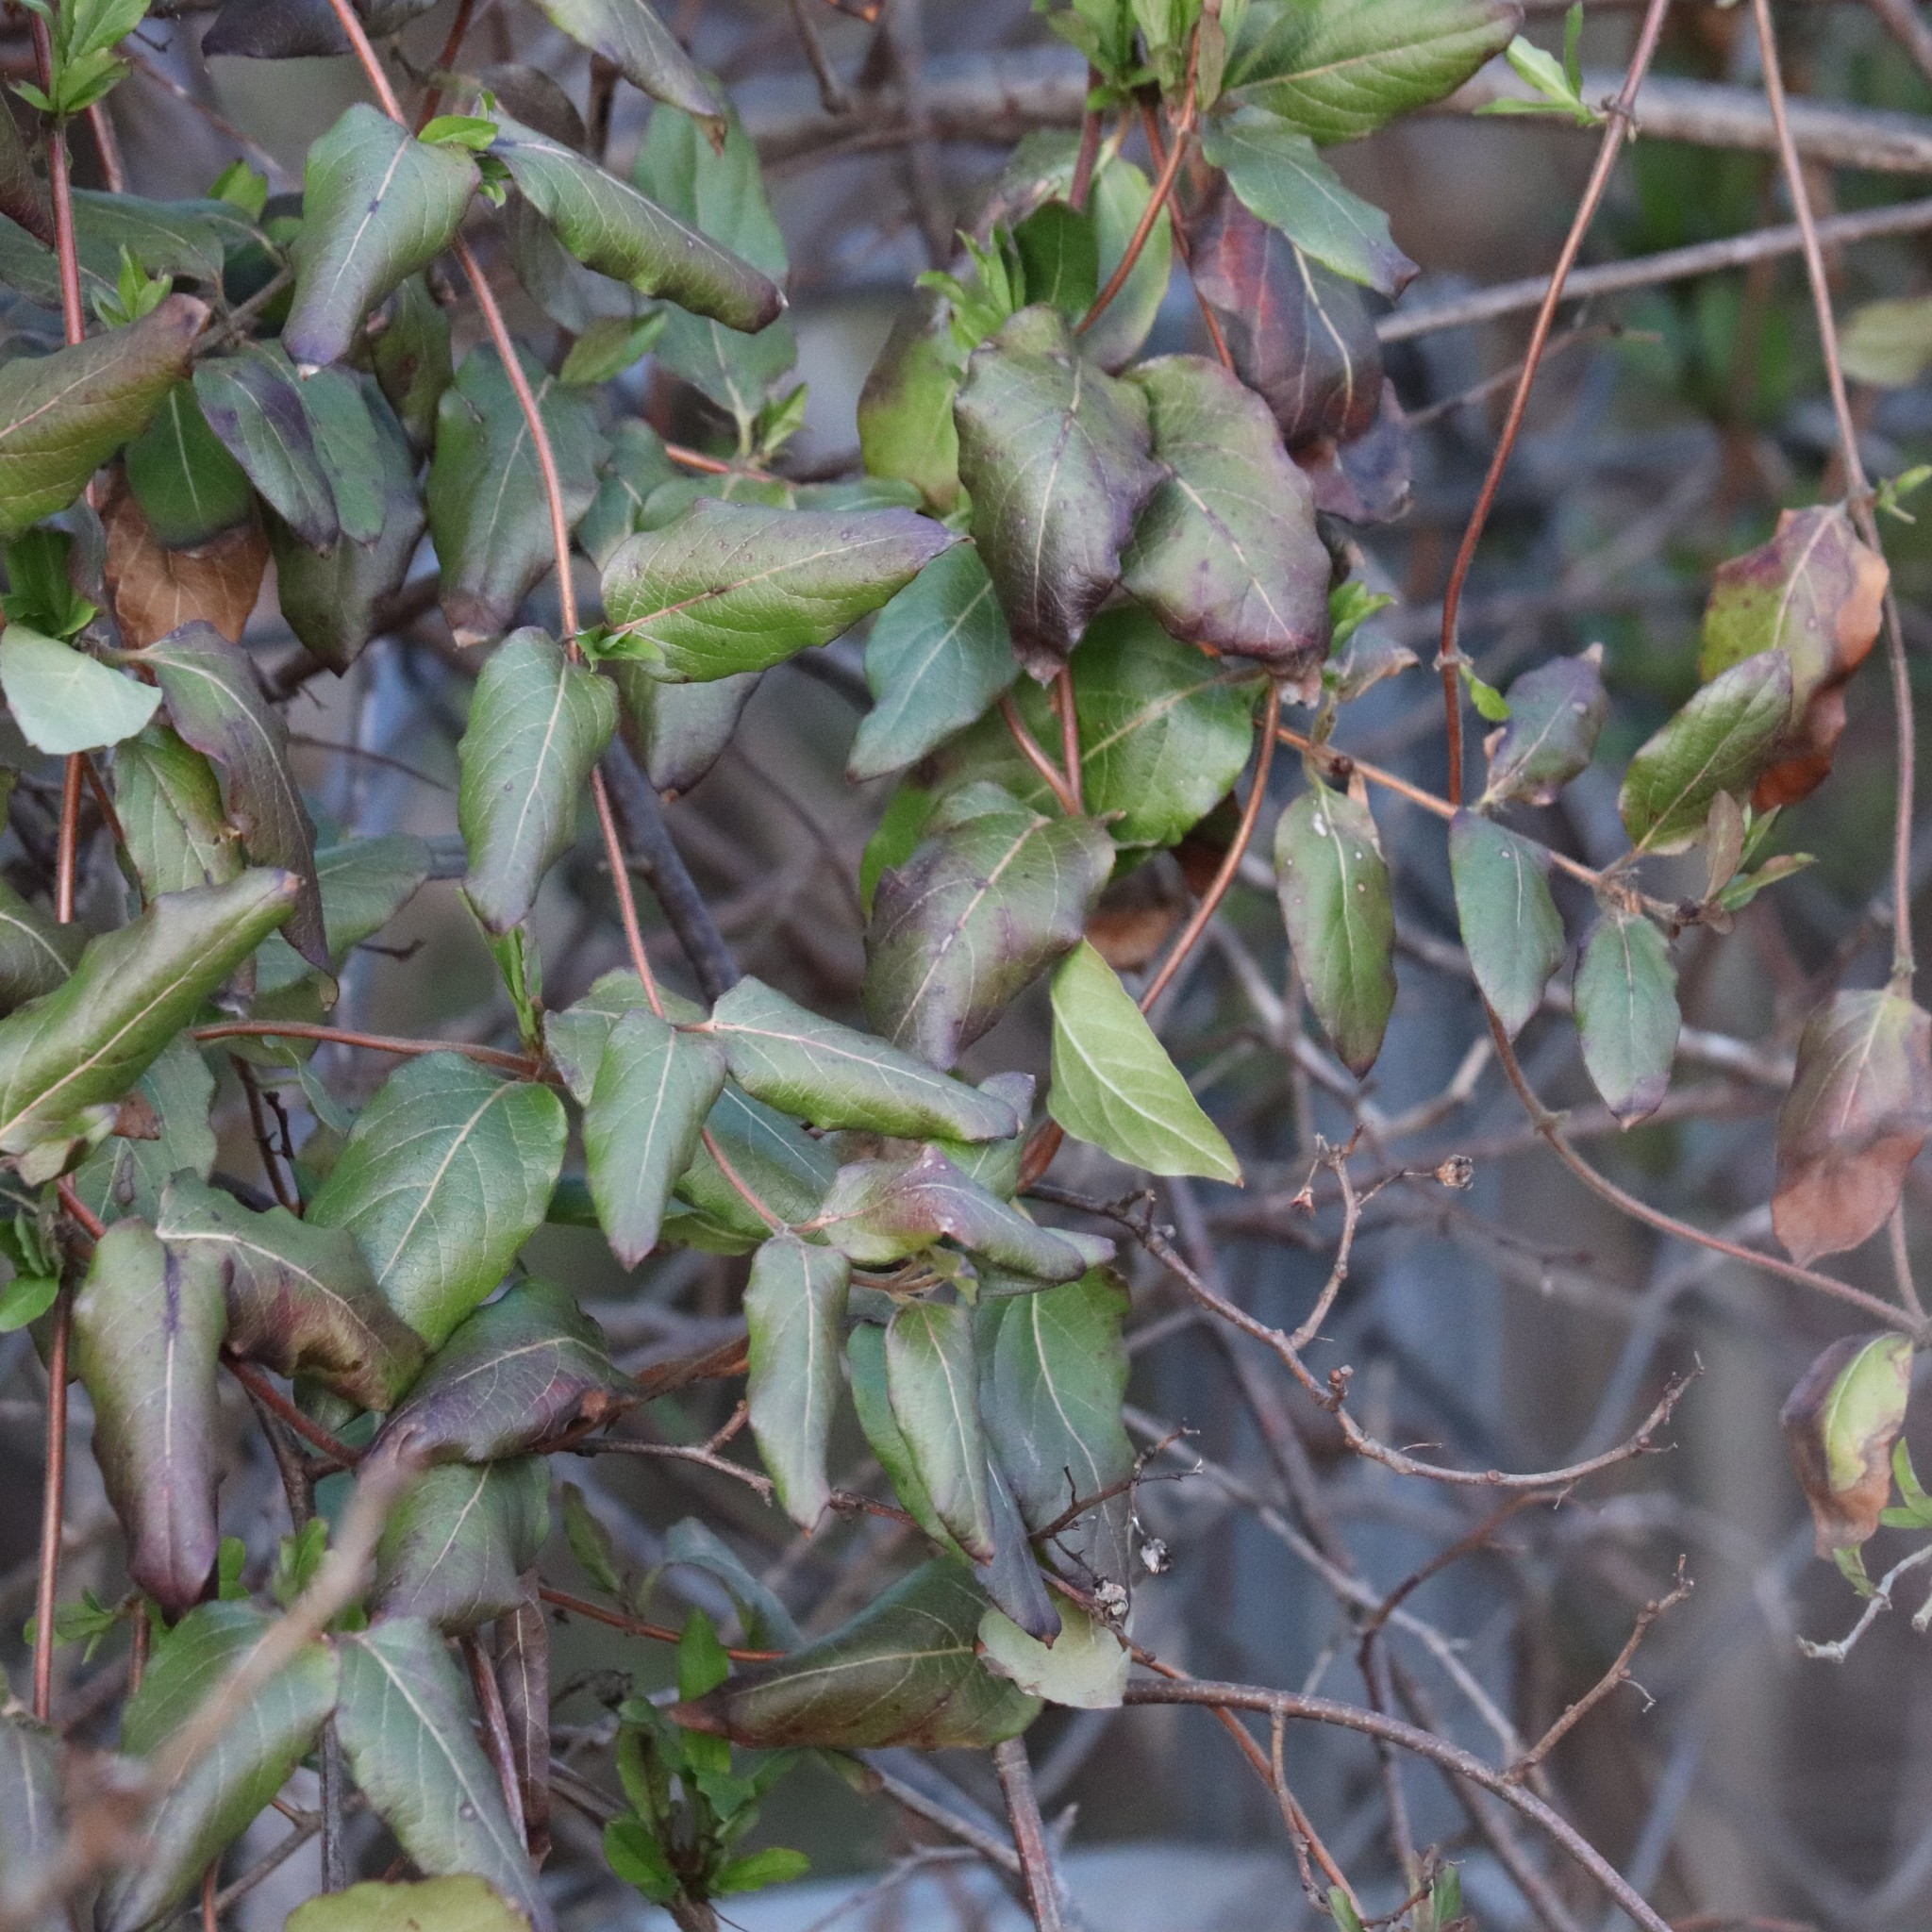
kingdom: Plantae
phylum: Tracheophyta
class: Magnoliopsida
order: Dipsacales
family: Caprifoliaceae
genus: Lonicera
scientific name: Lonicera japonica
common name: Japanese honeysuckle
